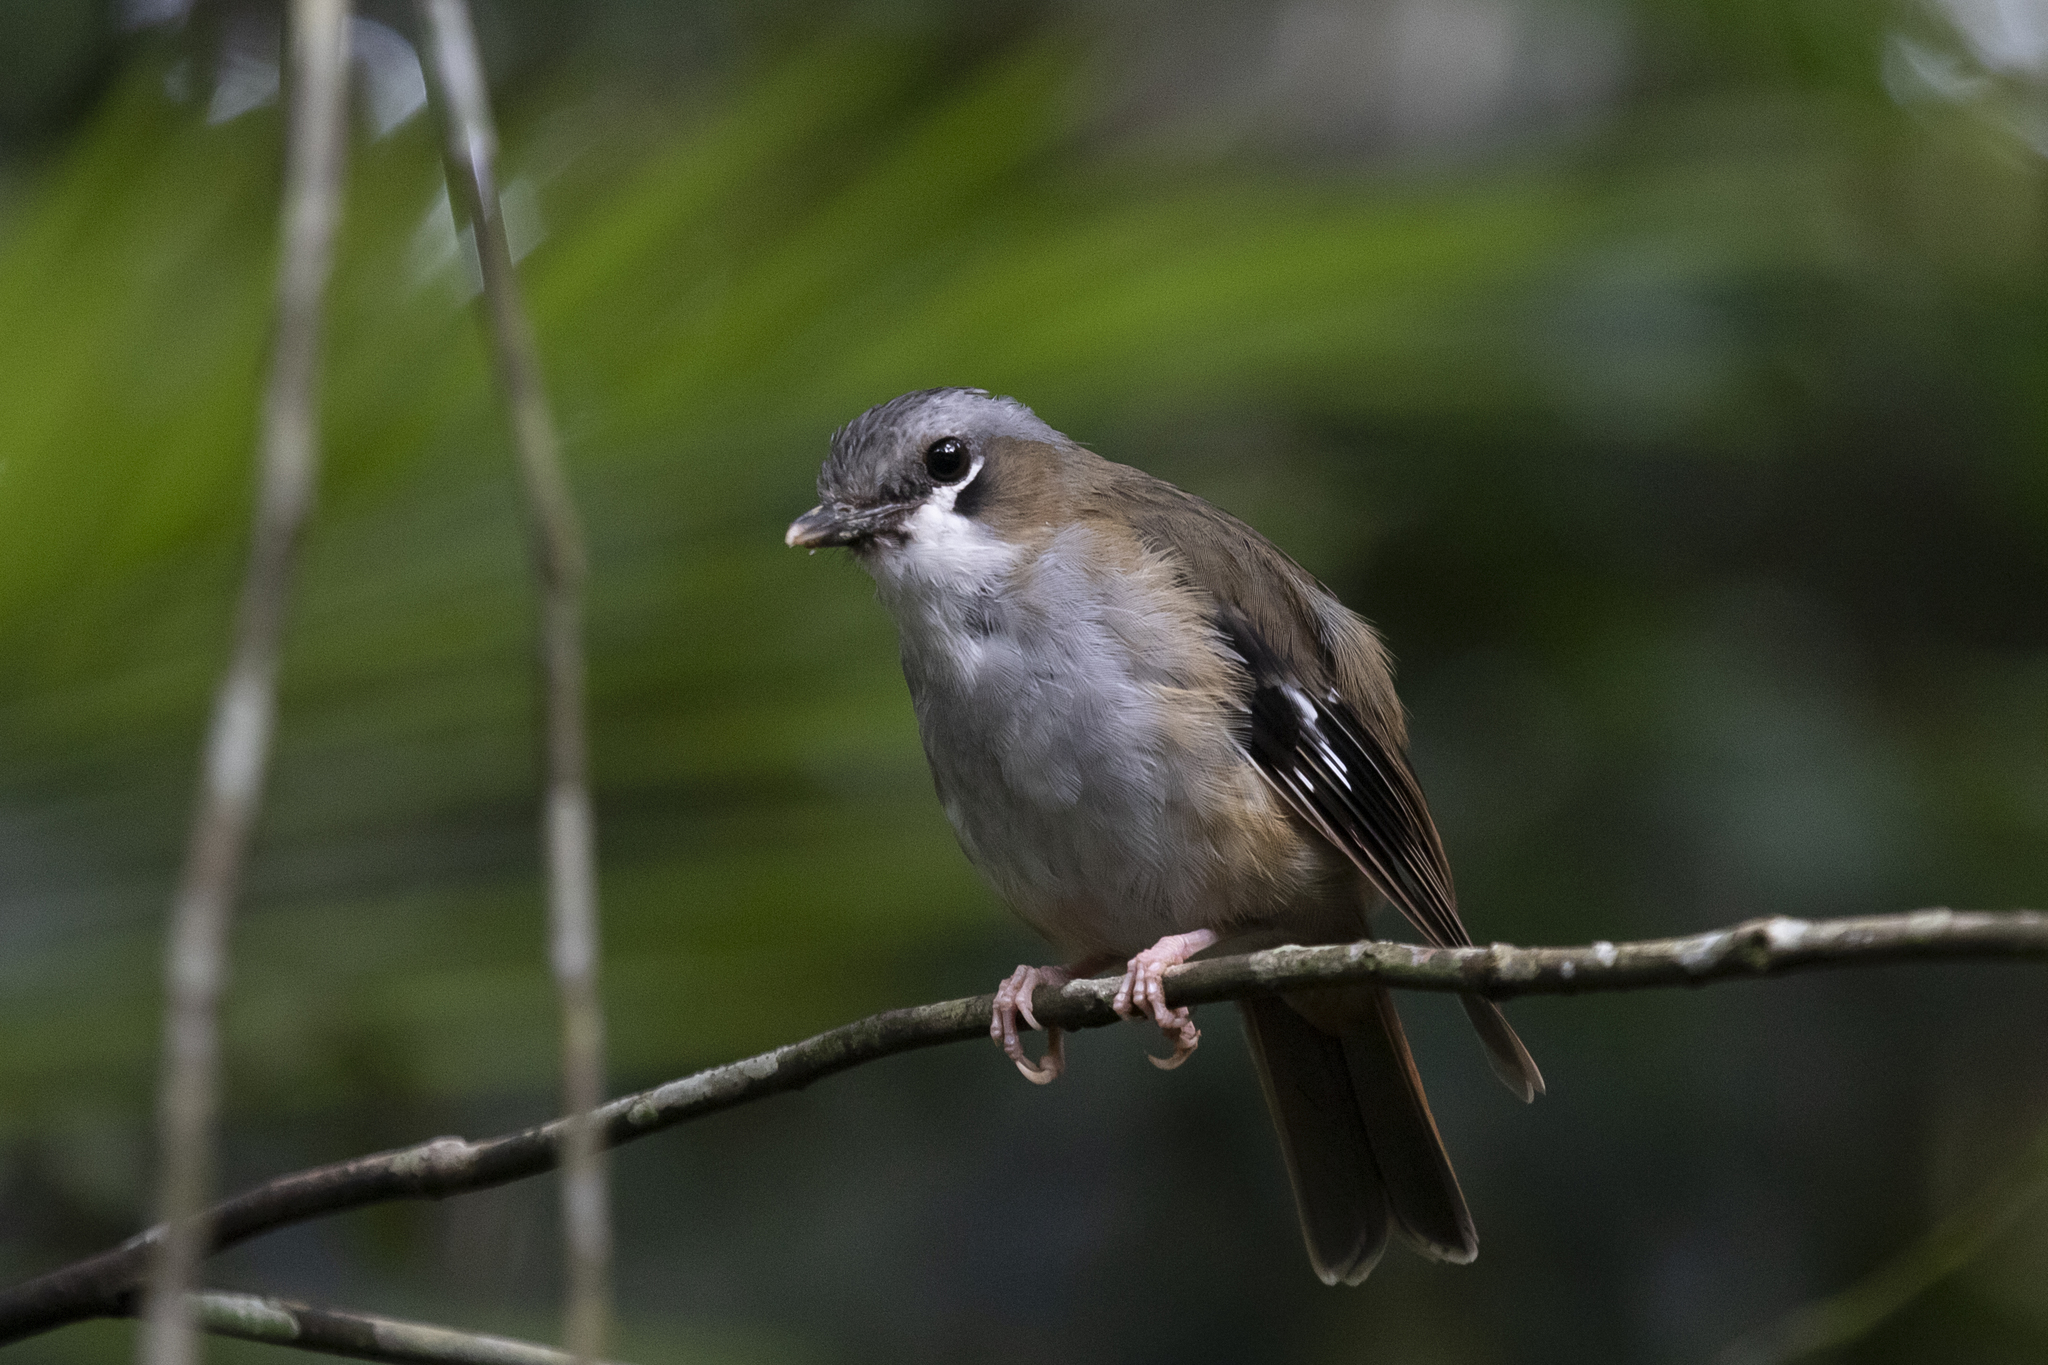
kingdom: Animalia
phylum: Chordata
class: Aves
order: Passeriformes
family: Petroicidae
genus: Heteromyias
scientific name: Heteromyias cinereifrons
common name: Grey-headed robin
